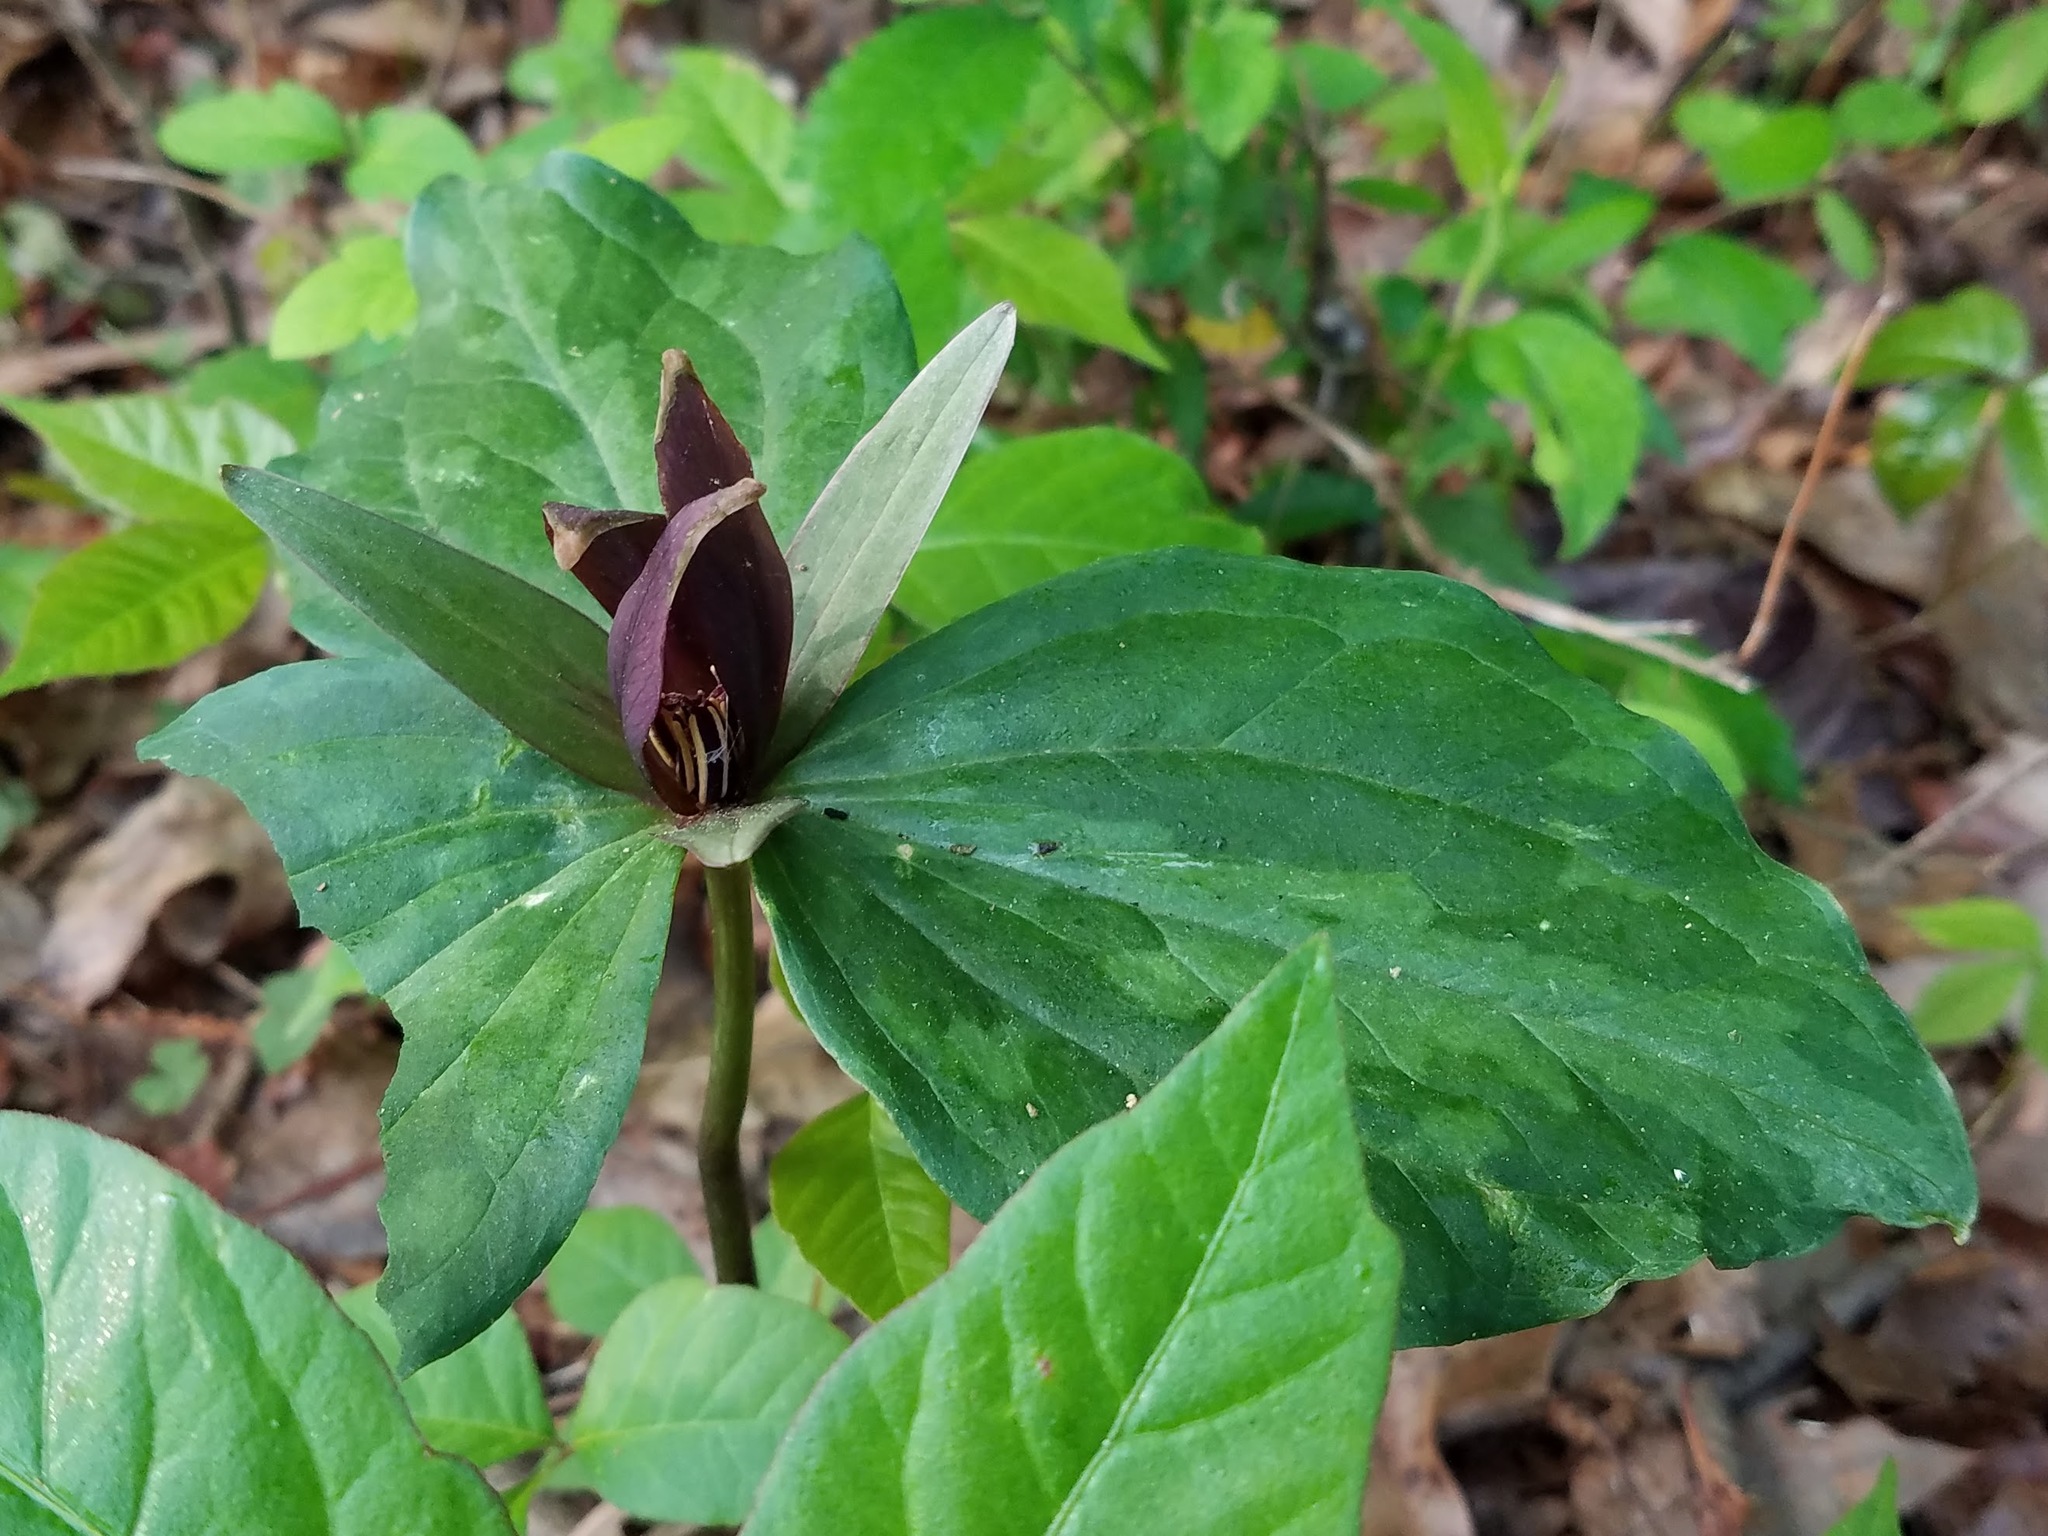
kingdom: Plantae
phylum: Tracheophyta
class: Liliopsida
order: Liliales
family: Melanthiaceae
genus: Trillium
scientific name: Trillium cuneatum
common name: Cuneate trillium
